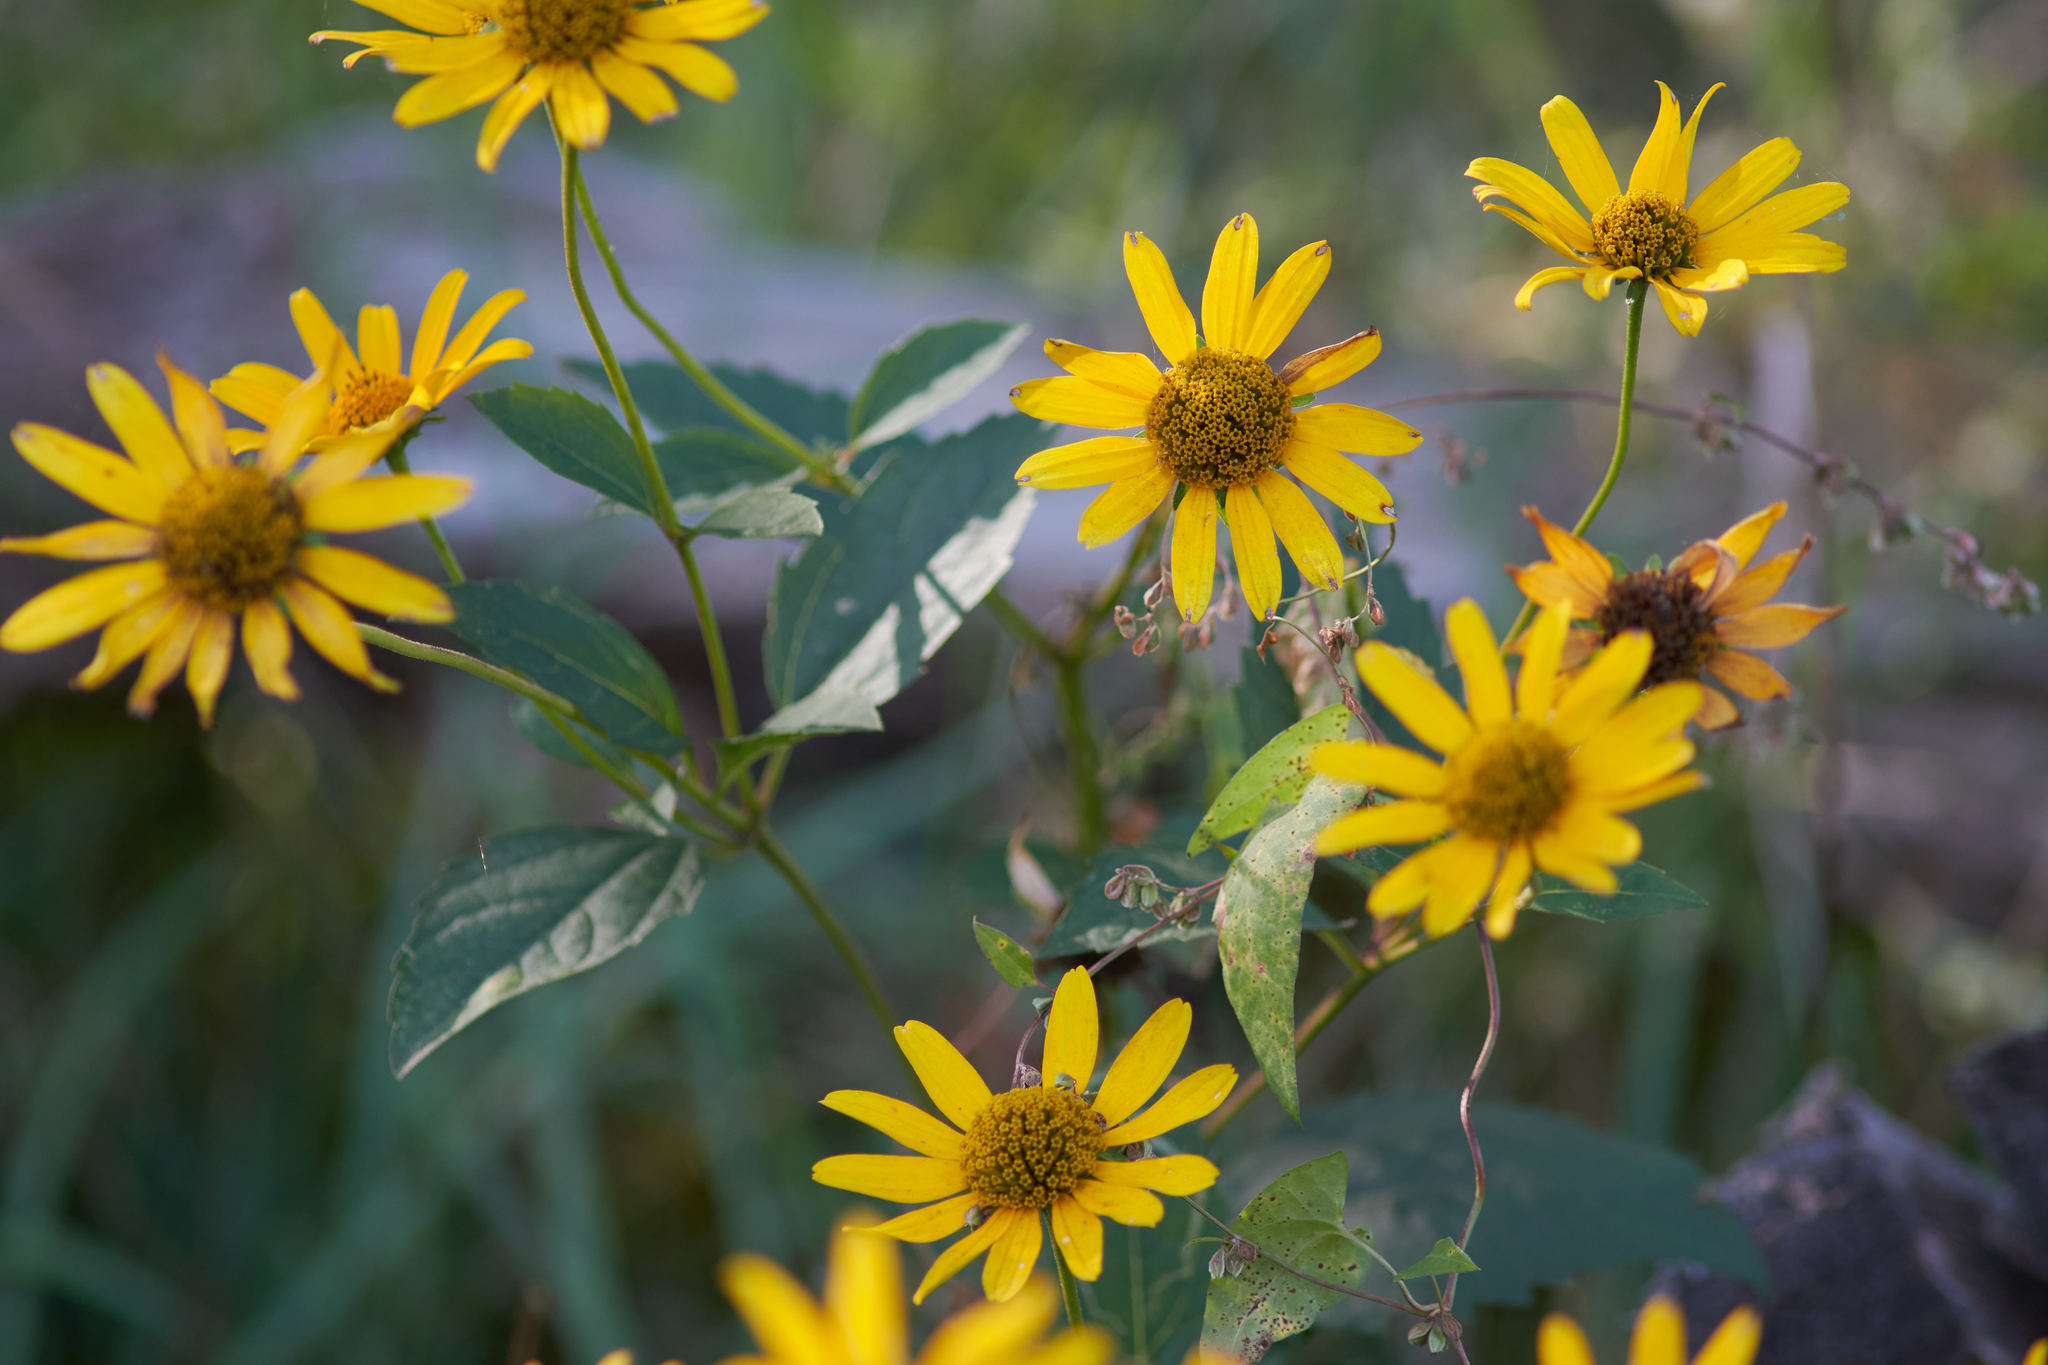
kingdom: Plantae
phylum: Tracheophyta
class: Magnoliopsida
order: Asterales
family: Asteraceae
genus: Heliopsis
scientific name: Heliopsis helianthoides
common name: False sunflower
